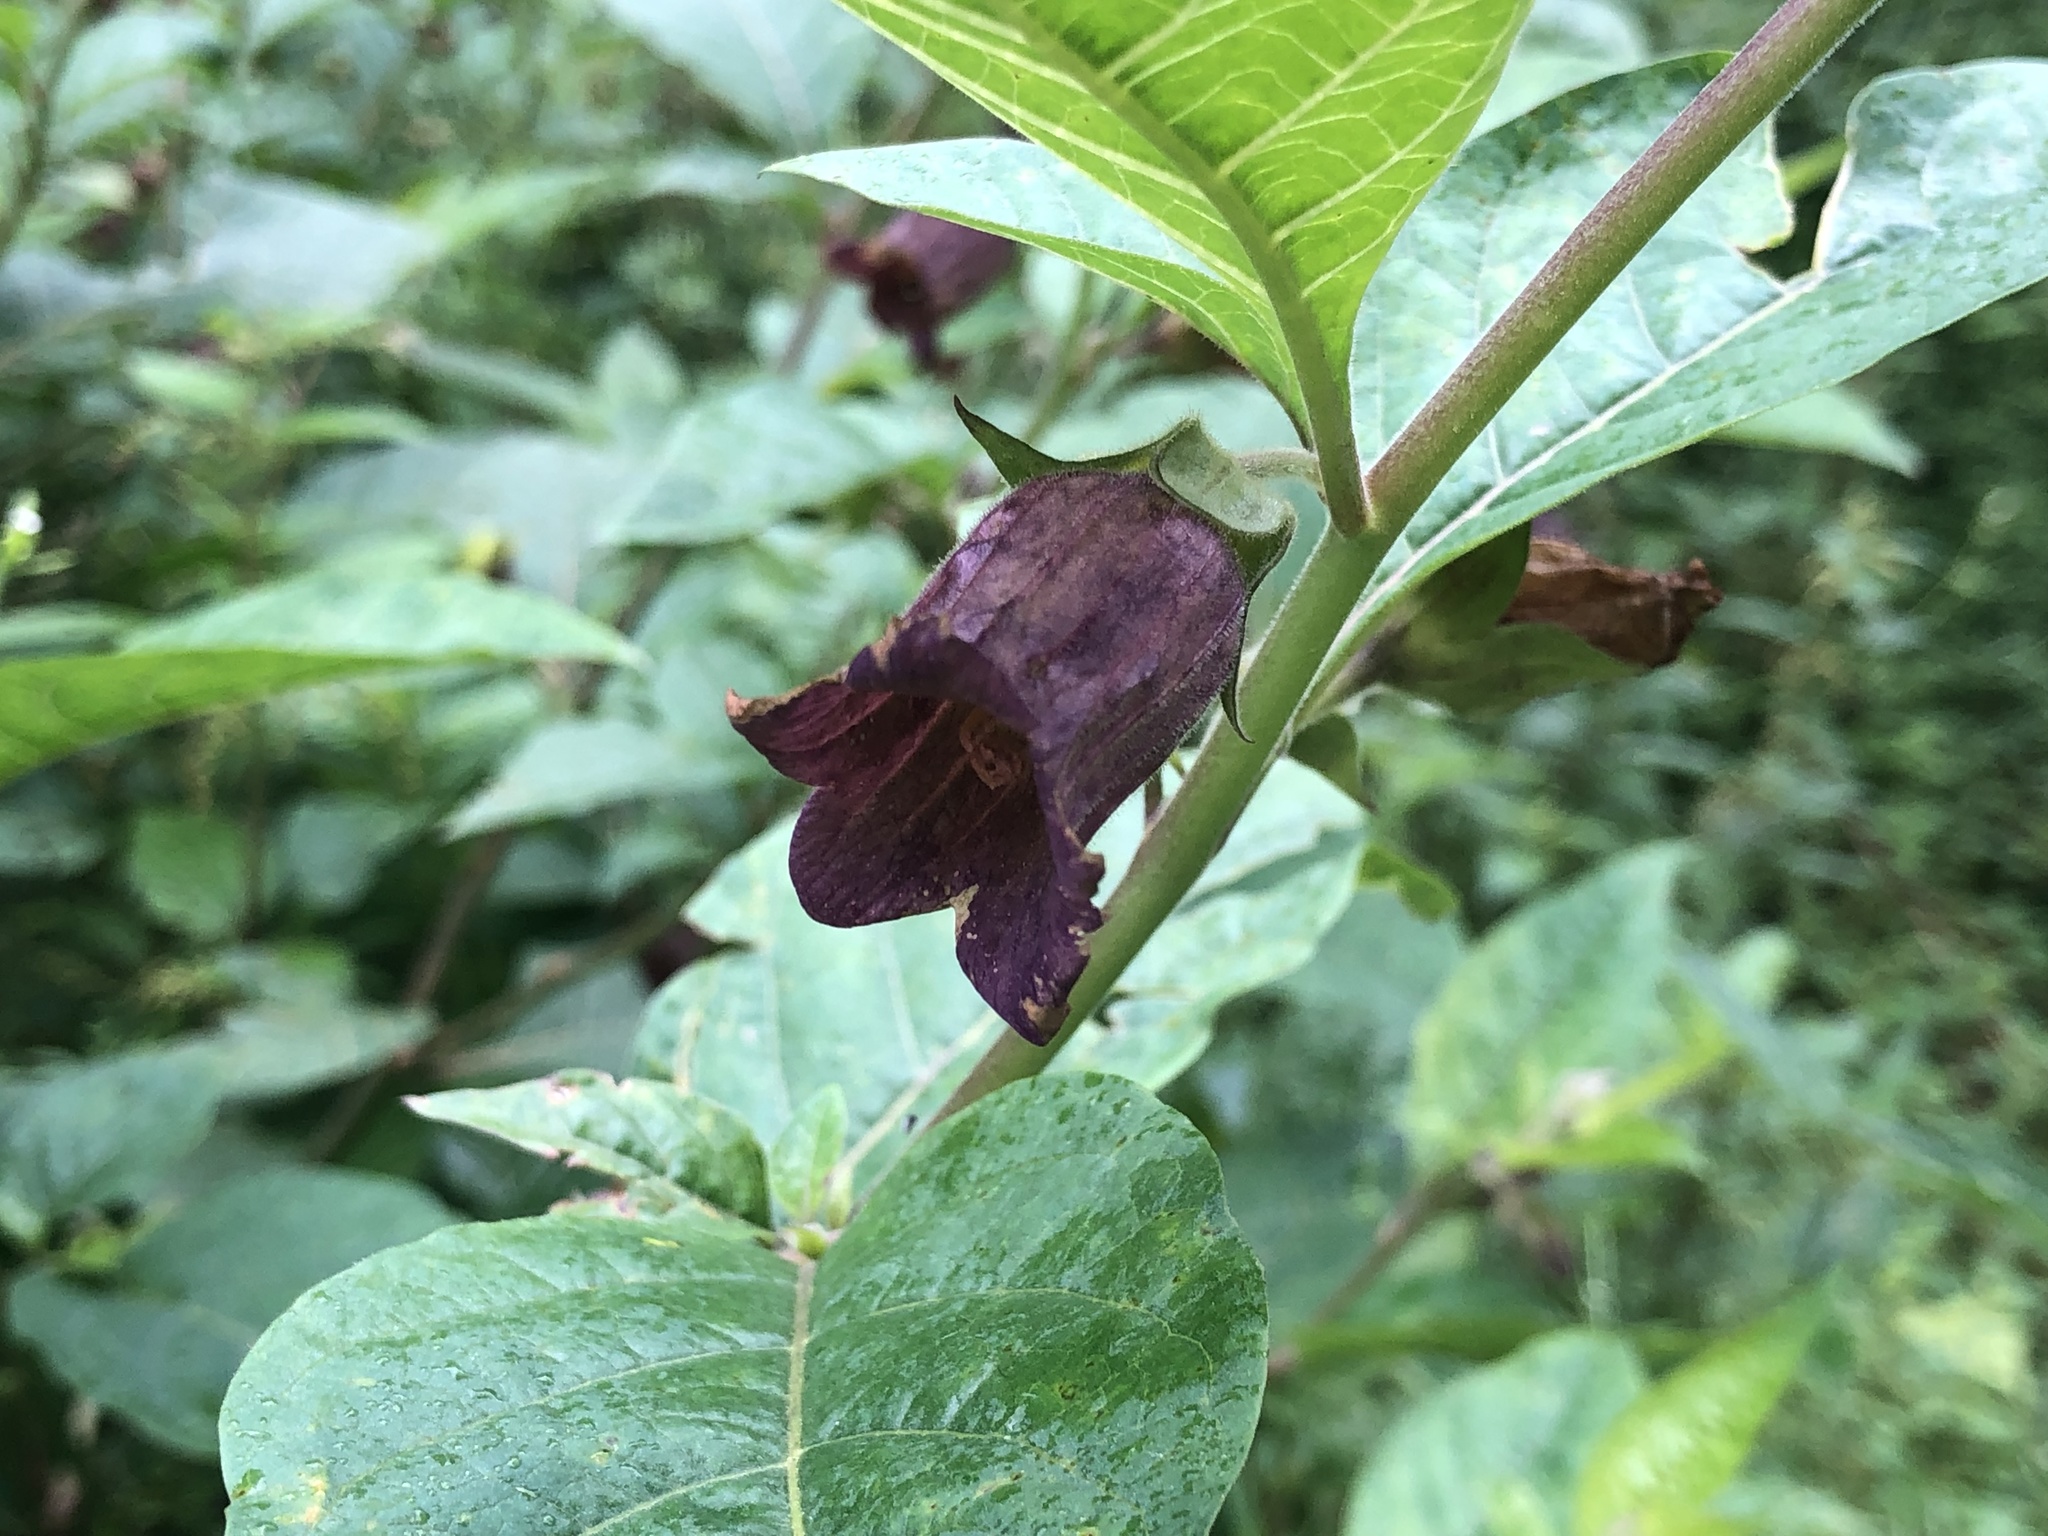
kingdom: Plantae
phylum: Tracheophyta
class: Magnoliopsida
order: Solanales
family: Solanaceae
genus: Atropa
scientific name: Atropa belladonna
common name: Deadly nightshade
